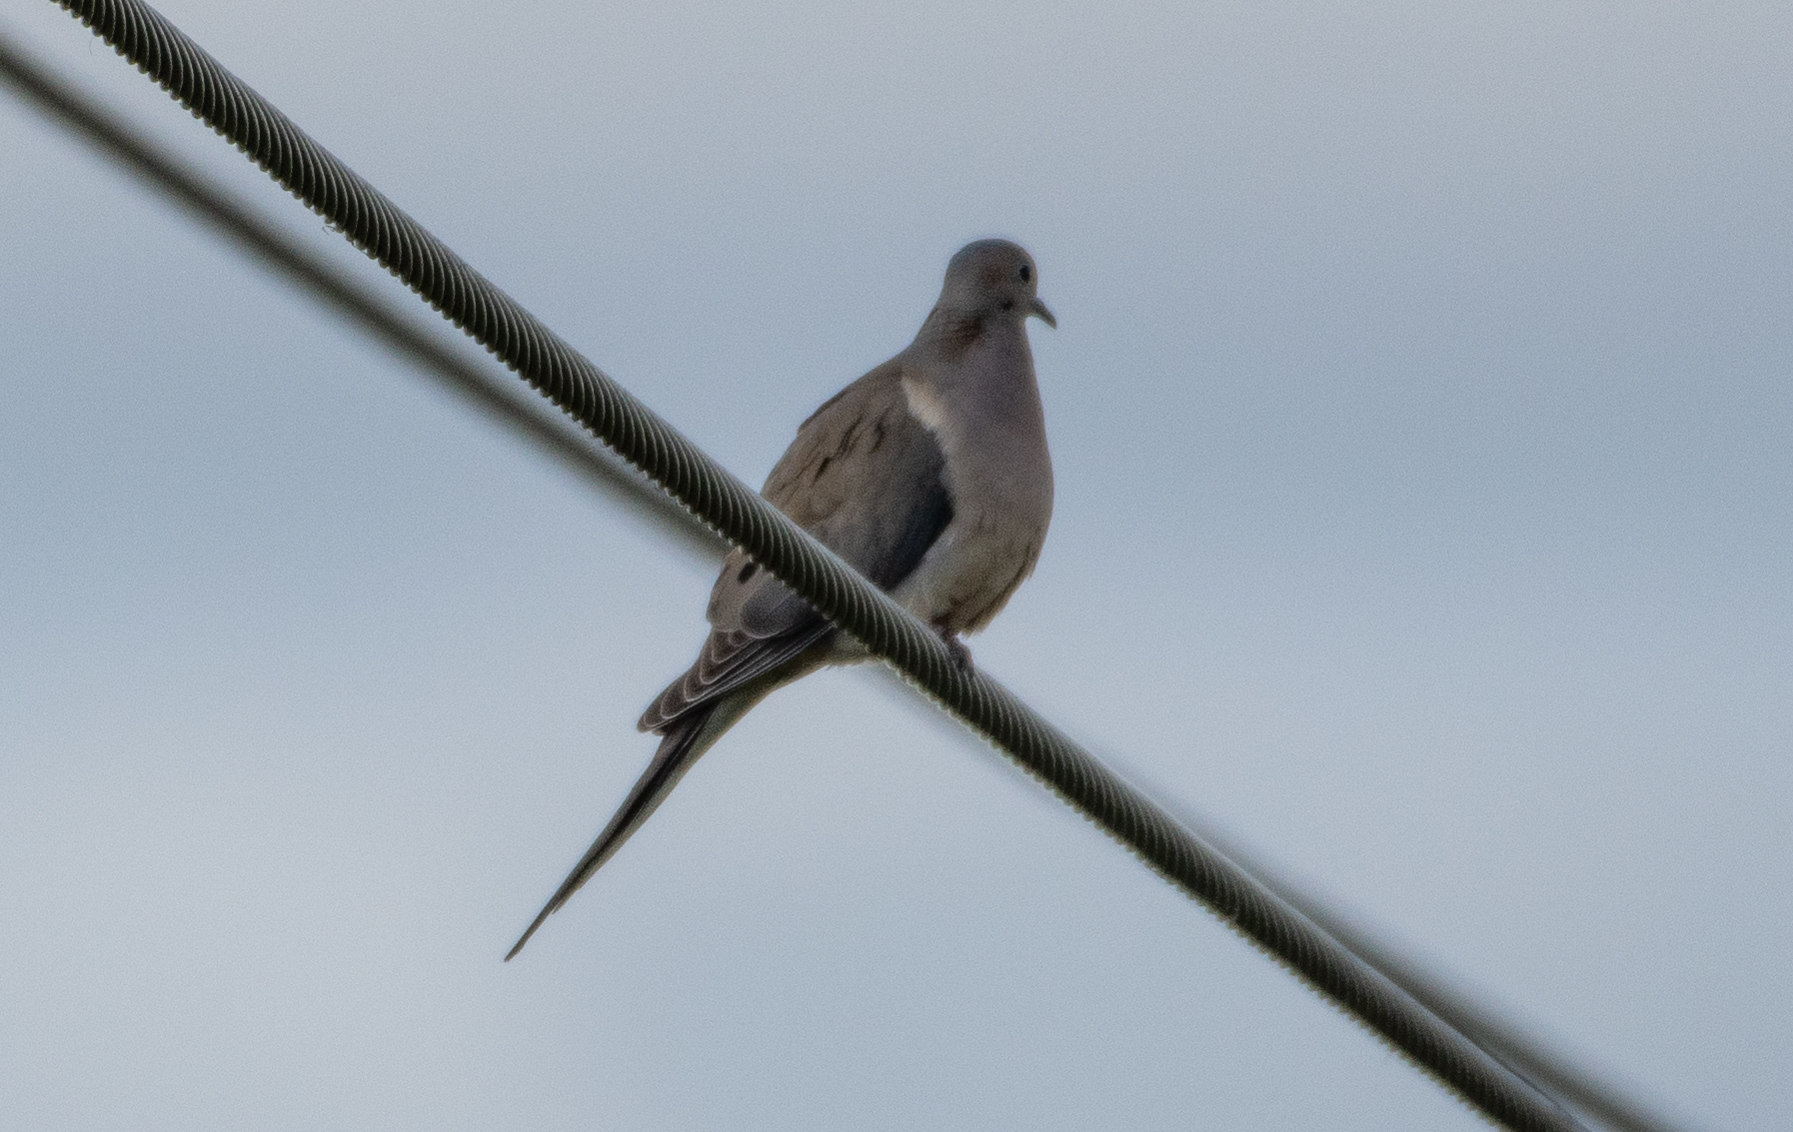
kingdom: Animalia
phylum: Chordata
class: Aves
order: Columbiformes
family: Columbidae
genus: Zenaida
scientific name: Zenaida macroura
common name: Mourning dove
